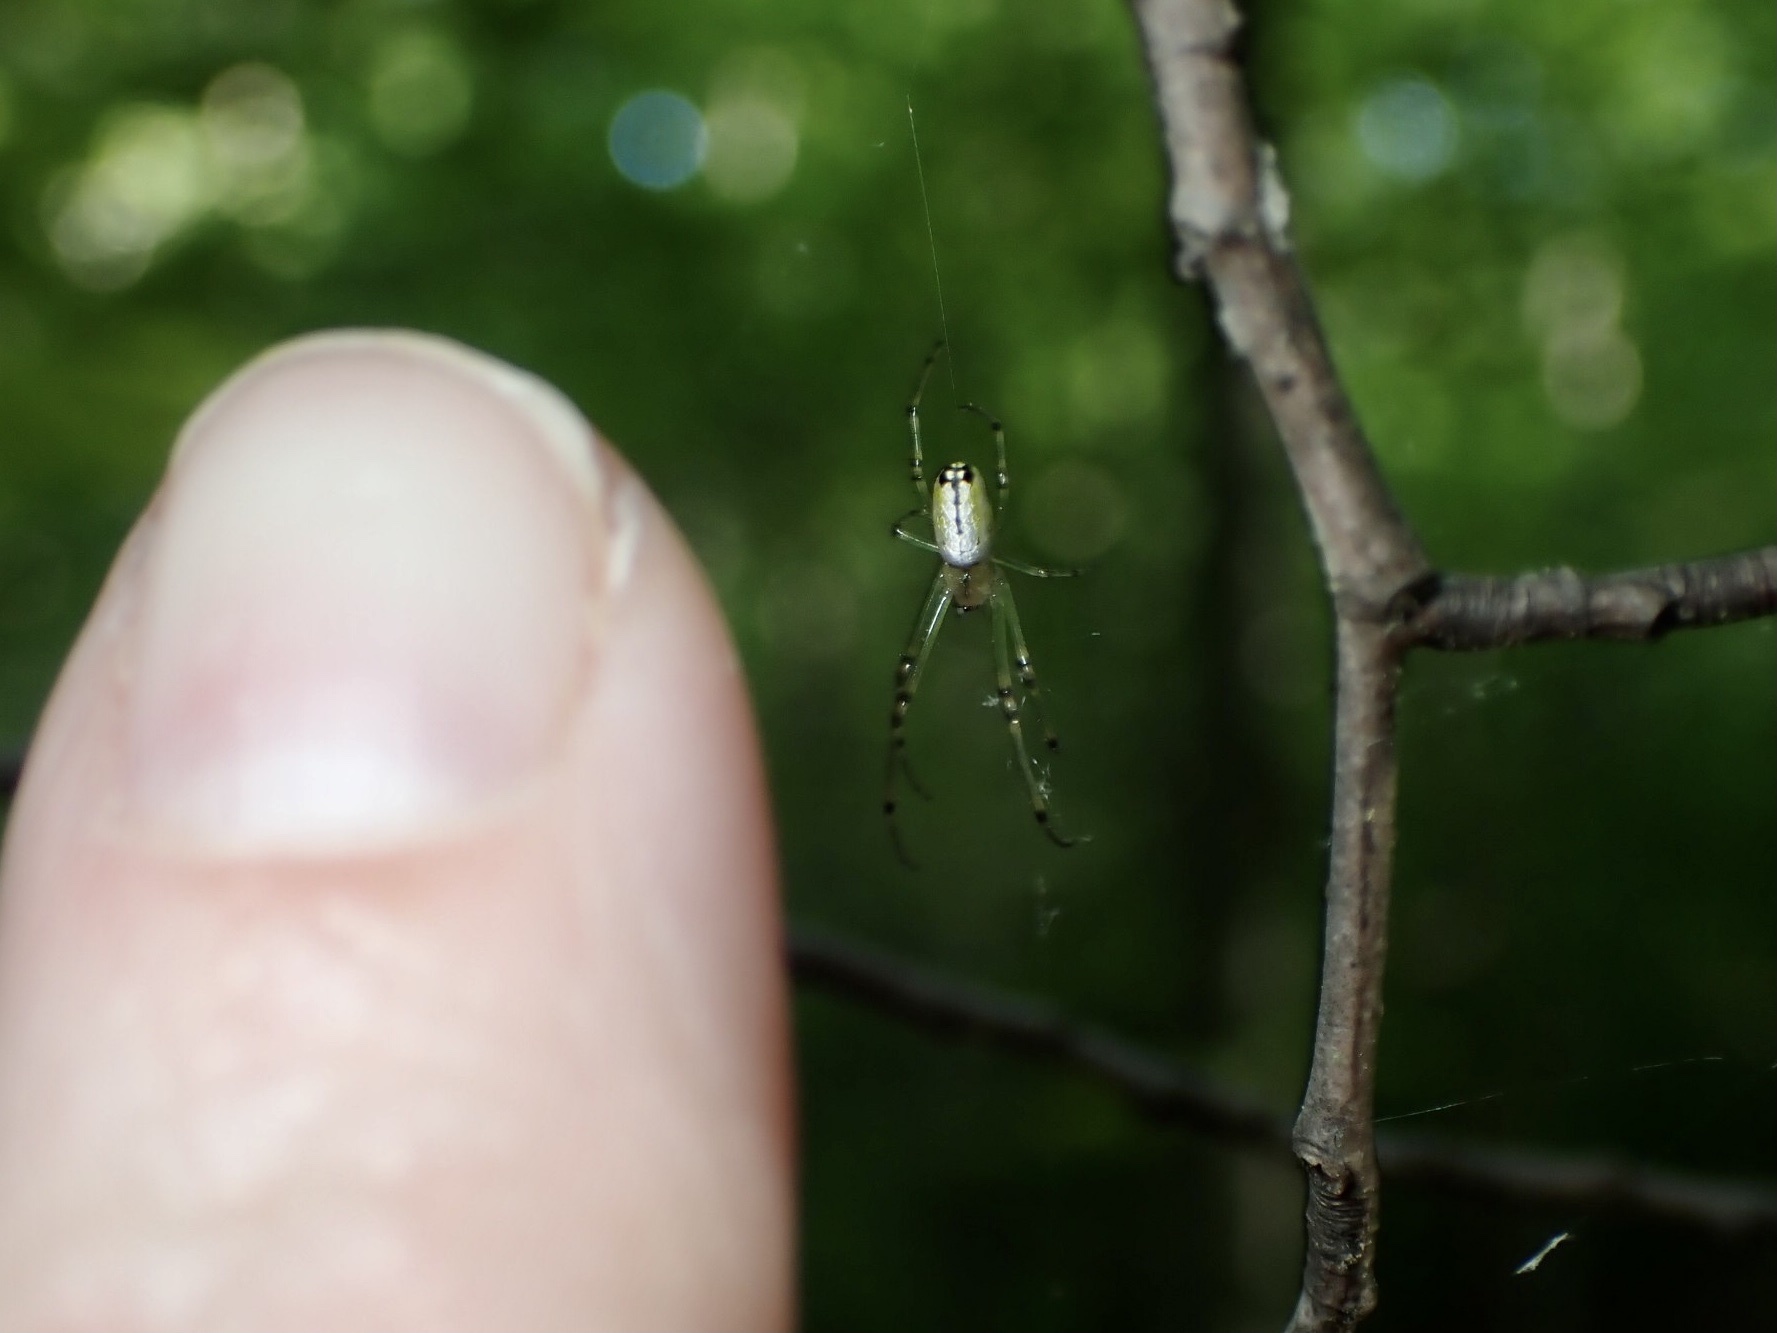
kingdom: Animalia
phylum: Arthropoda
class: Arachnida
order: Araneae
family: Tetragnathidae
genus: Leucauge
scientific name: Leucauge venusta
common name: Longjawed orb weavers
